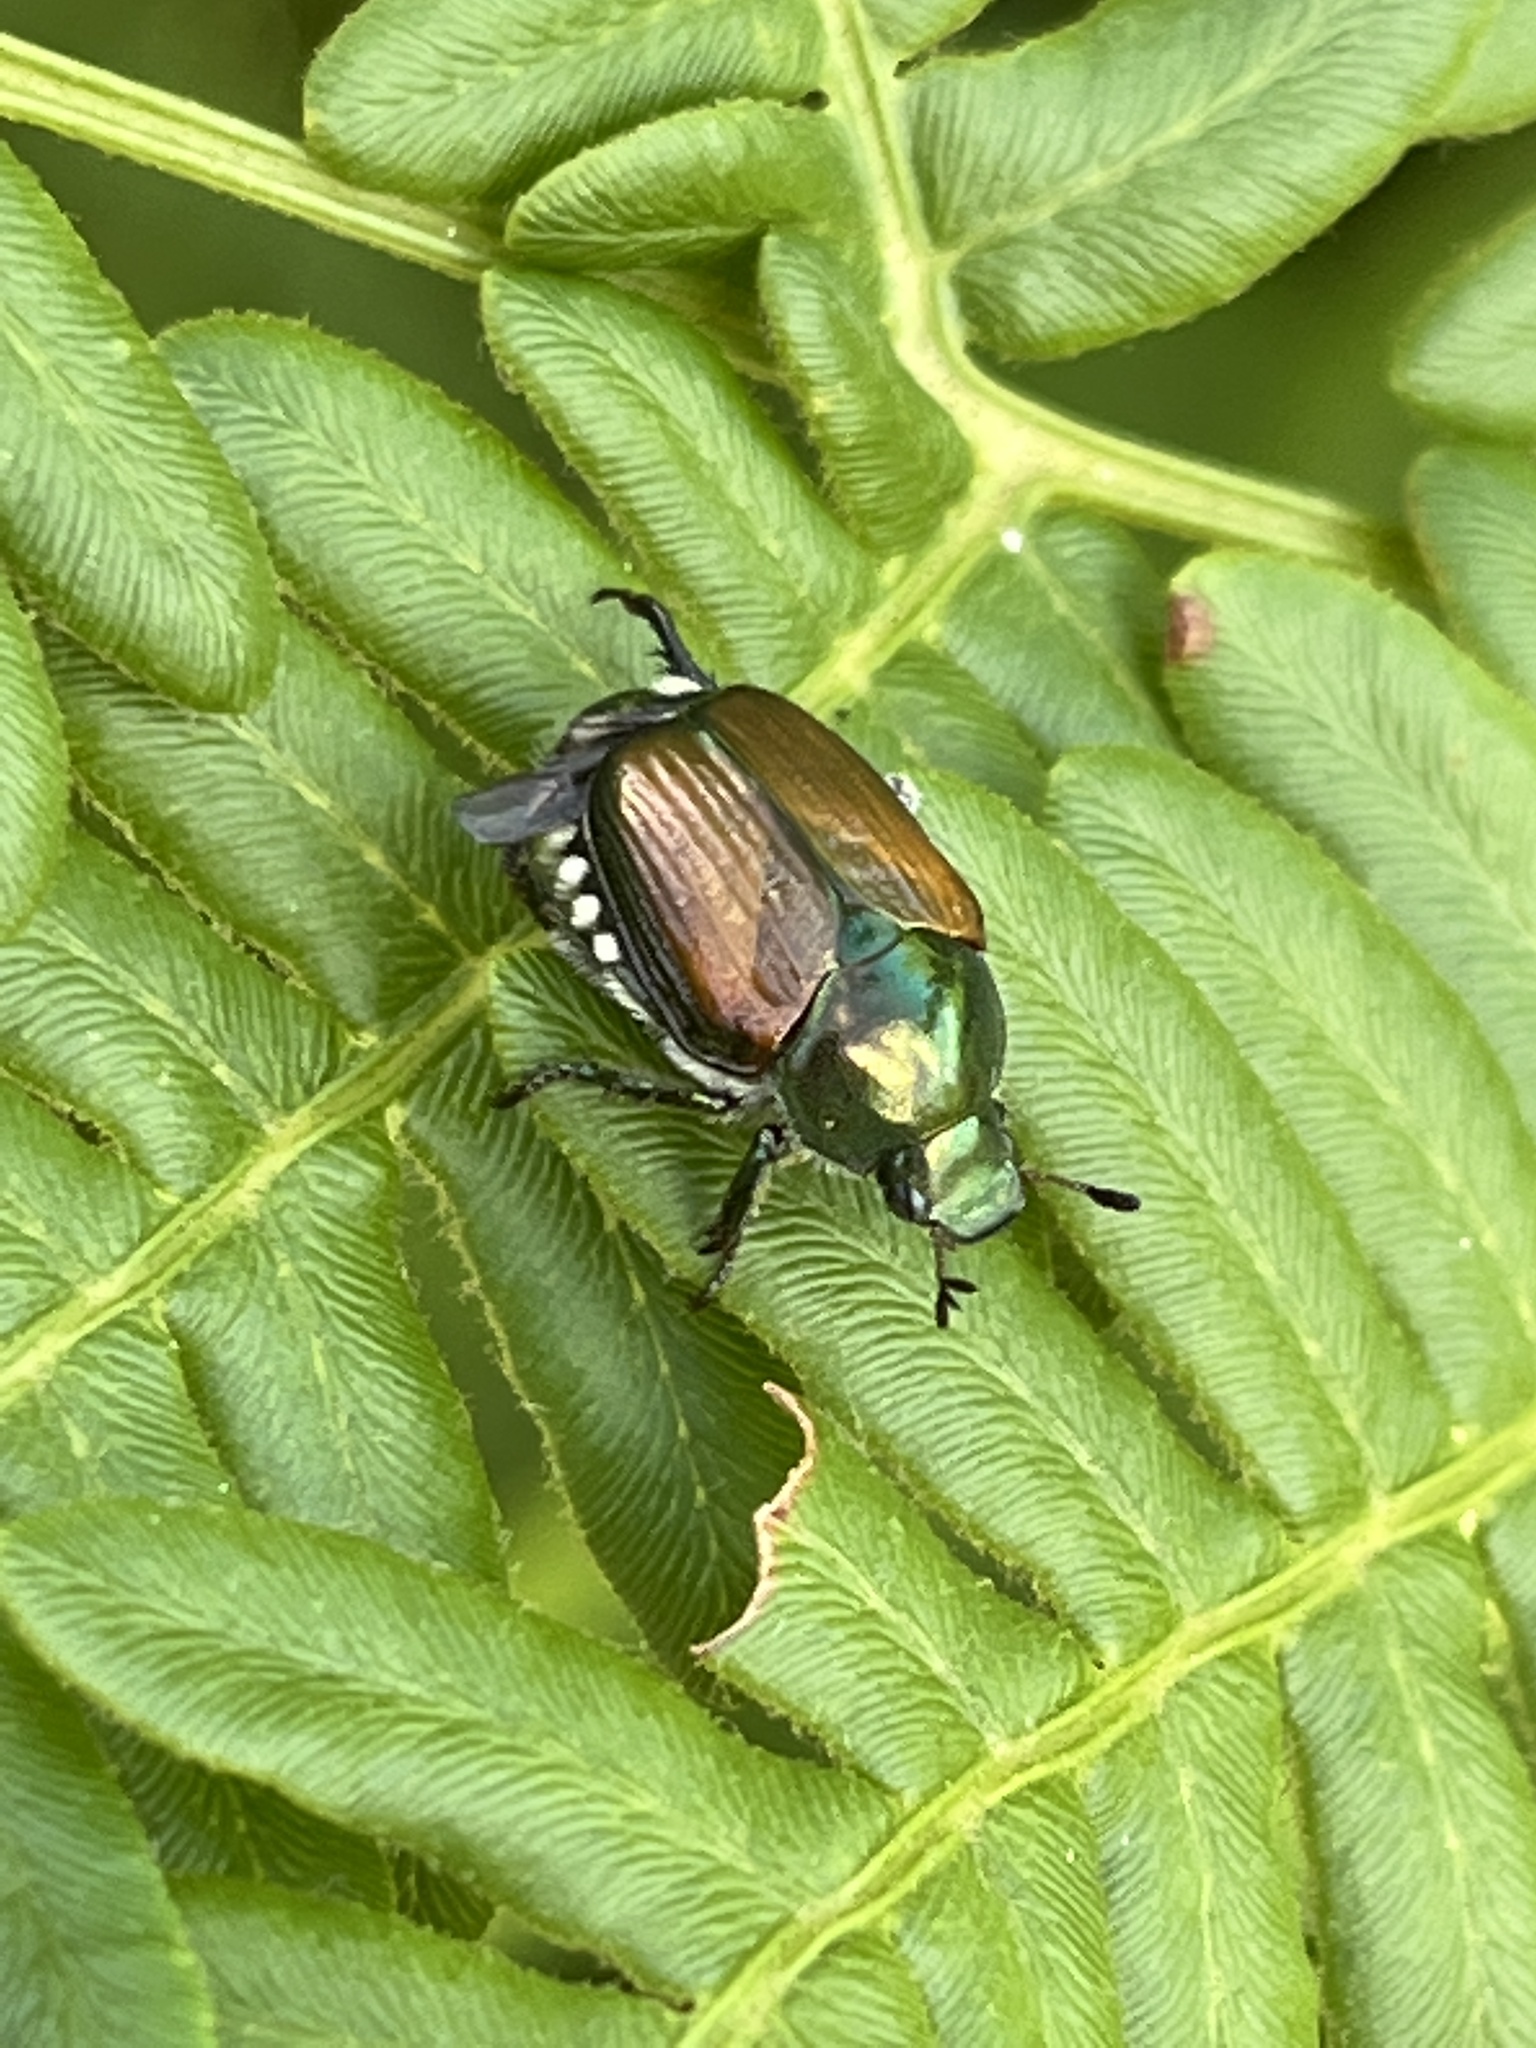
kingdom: Animalia
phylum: Arthropoda
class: Insecta
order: Coleoptera
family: Scarabaeidae
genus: Popillia
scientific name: Popillia japonica
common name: Japanese beetle
